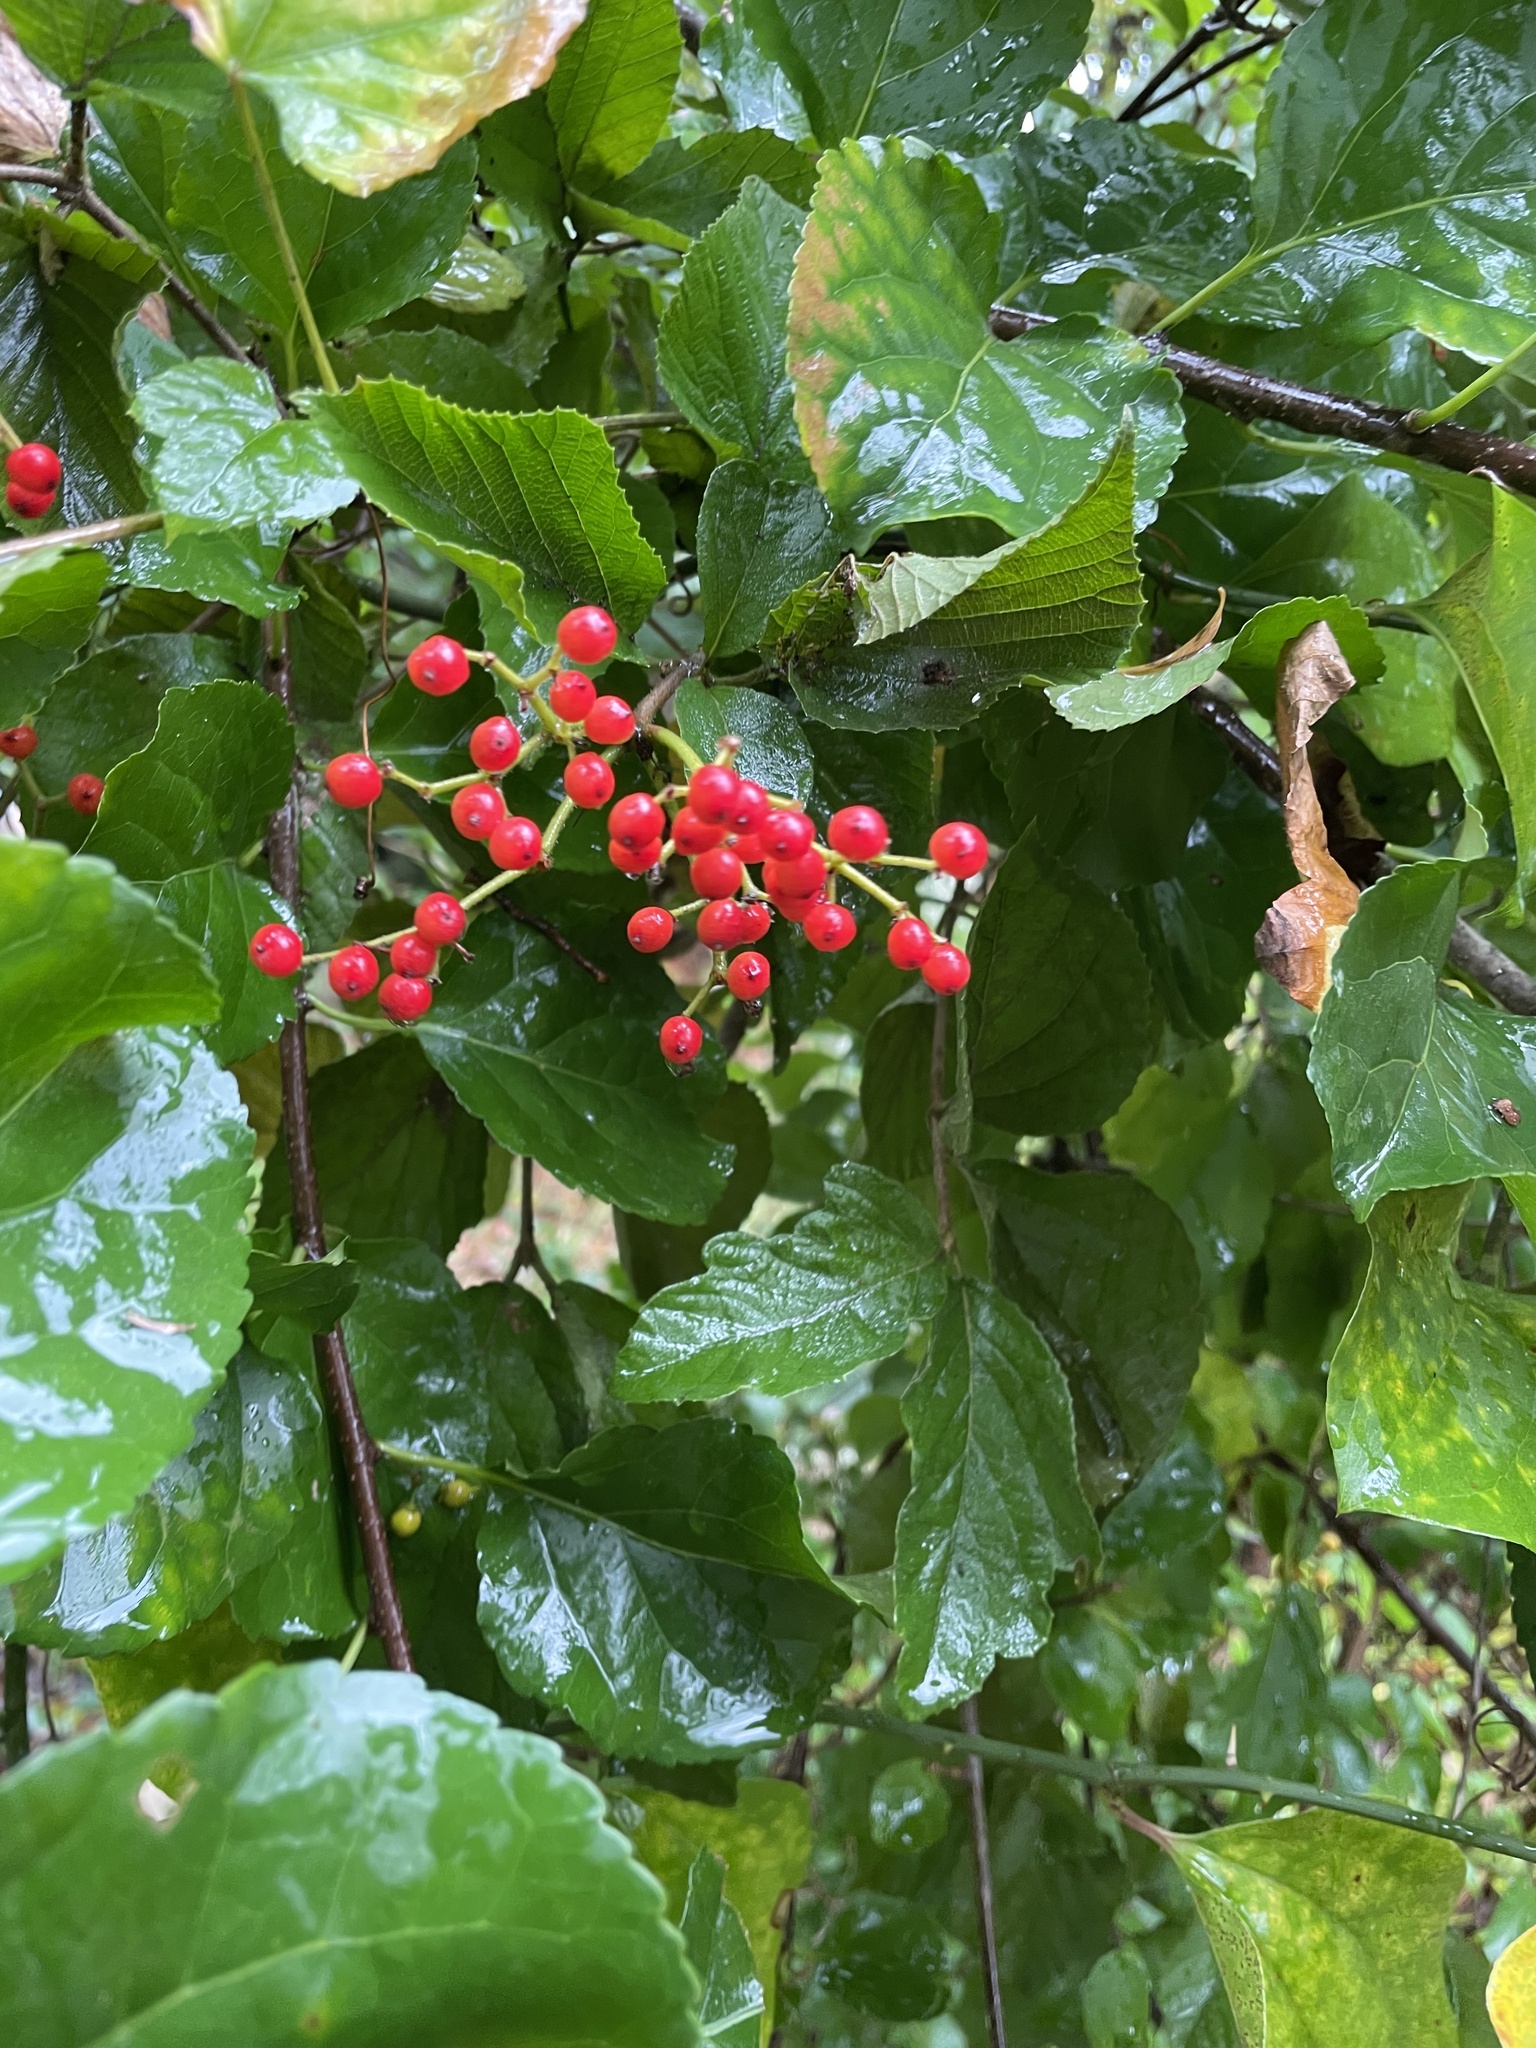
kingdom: Plantae
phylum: Tracheophyta
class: Magnoliopsida
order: Dipsacales
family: Viburnaceae
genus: Viburnum
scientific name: Viburnum dilatatum
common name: Linden arrowwood
